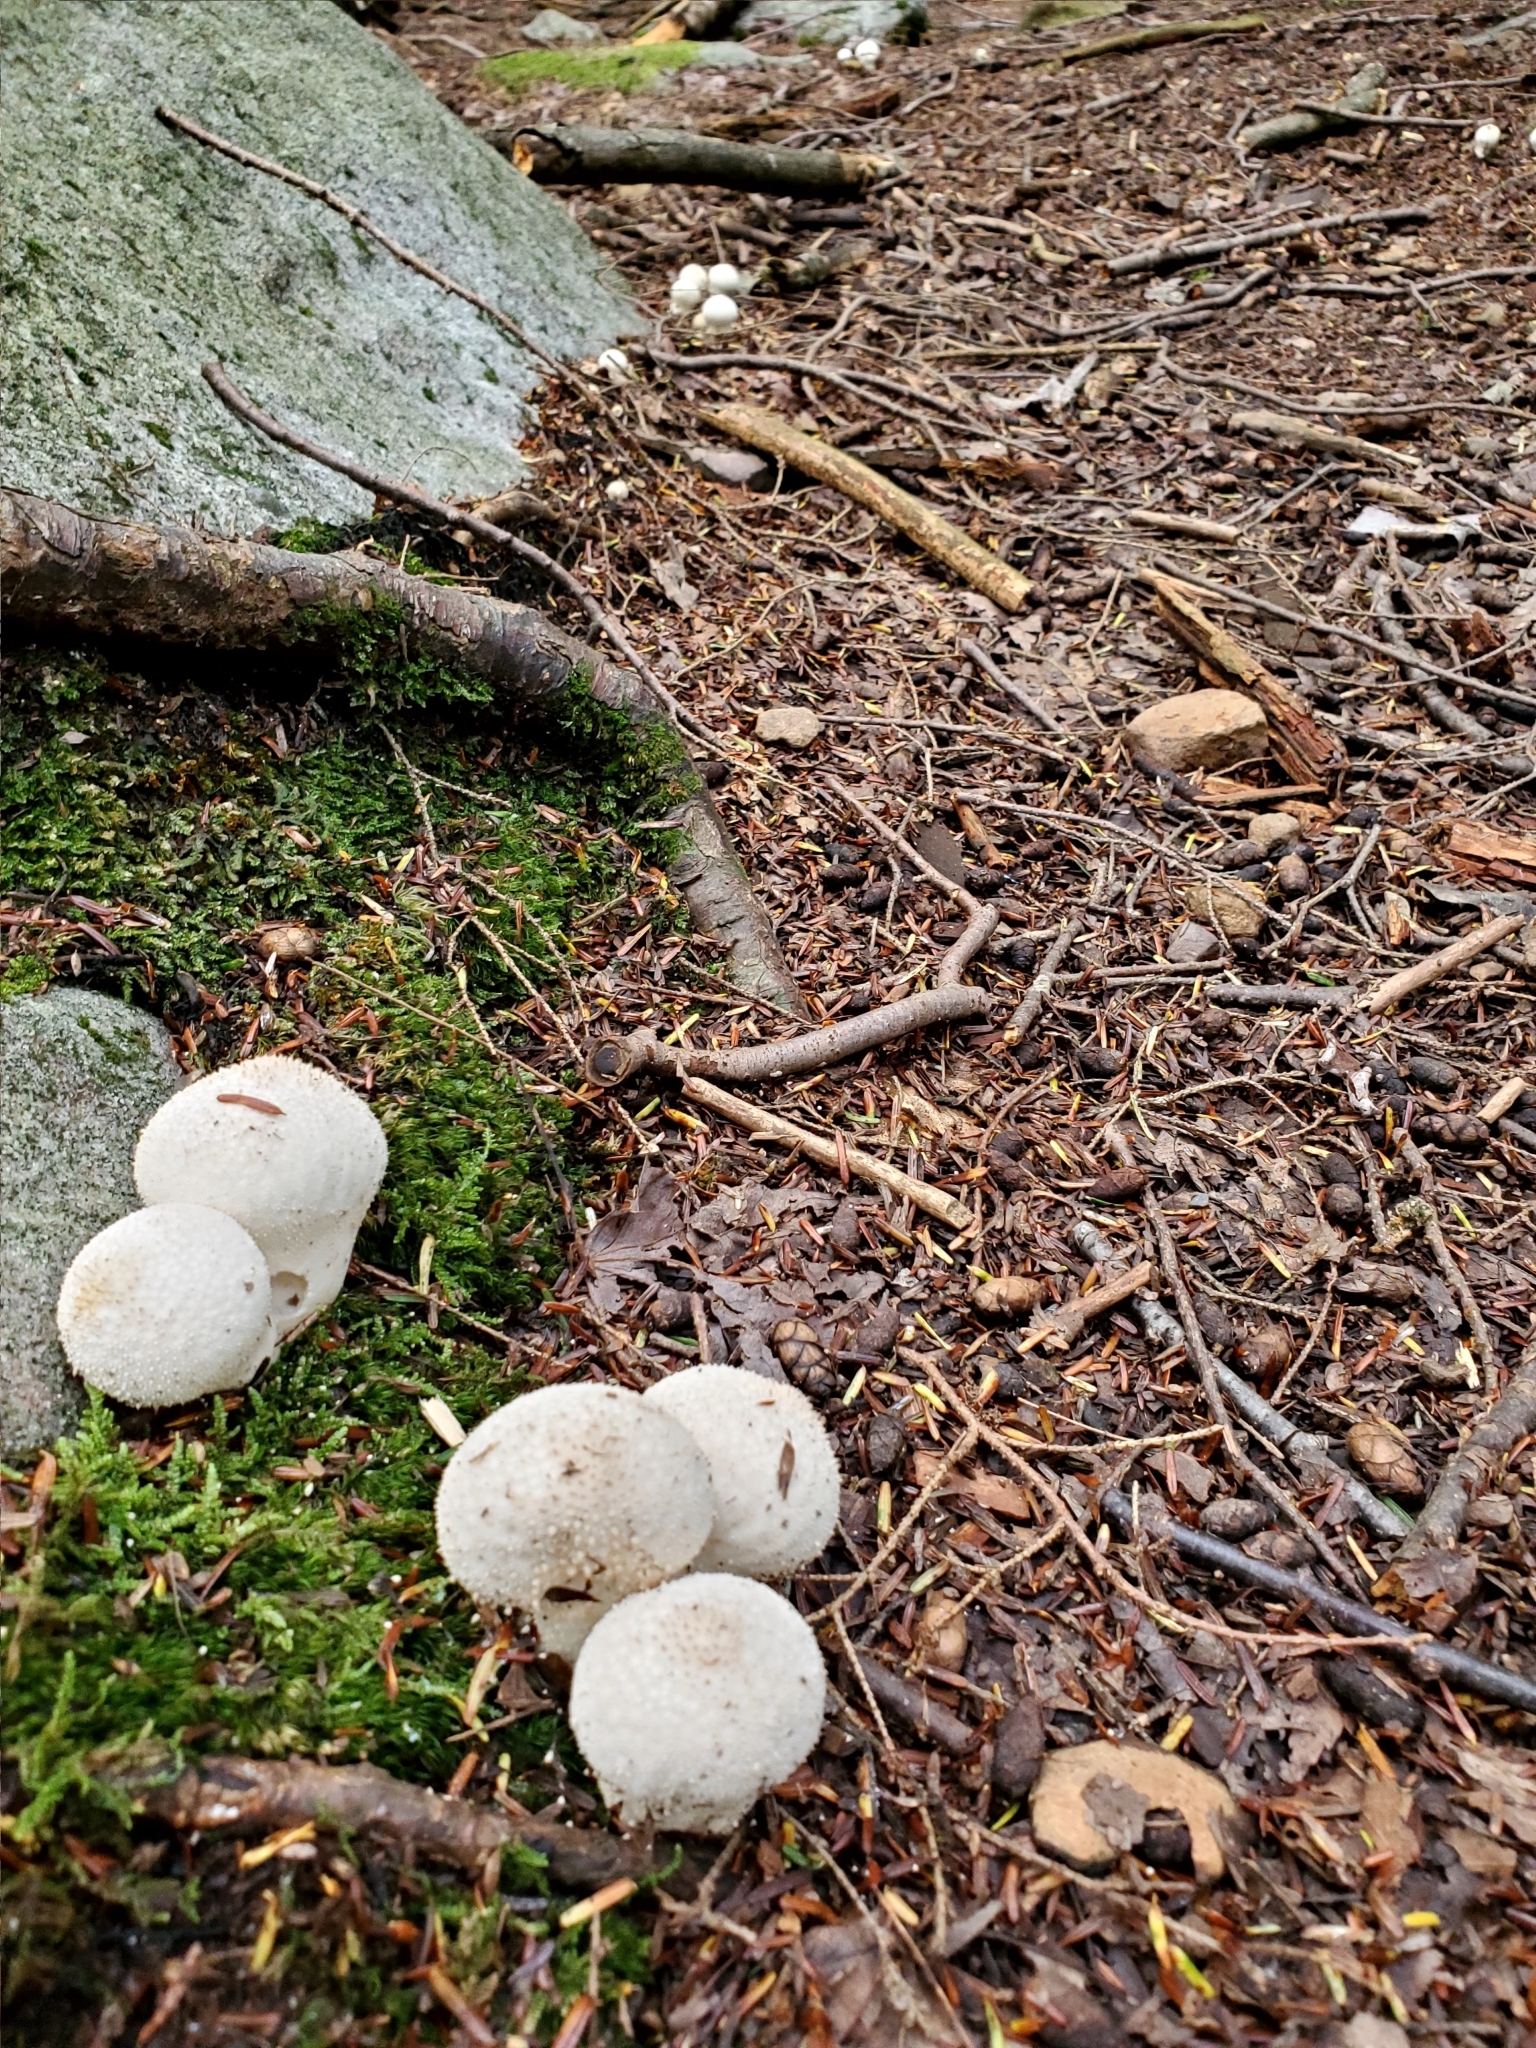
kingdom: Fungi
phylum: Basidiomycota
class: Agaricomycetes
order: Agaricales
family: Lycoperdaceae
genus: Lycoperdon
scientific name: Lycoperdon perlatum
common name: Common puffball
